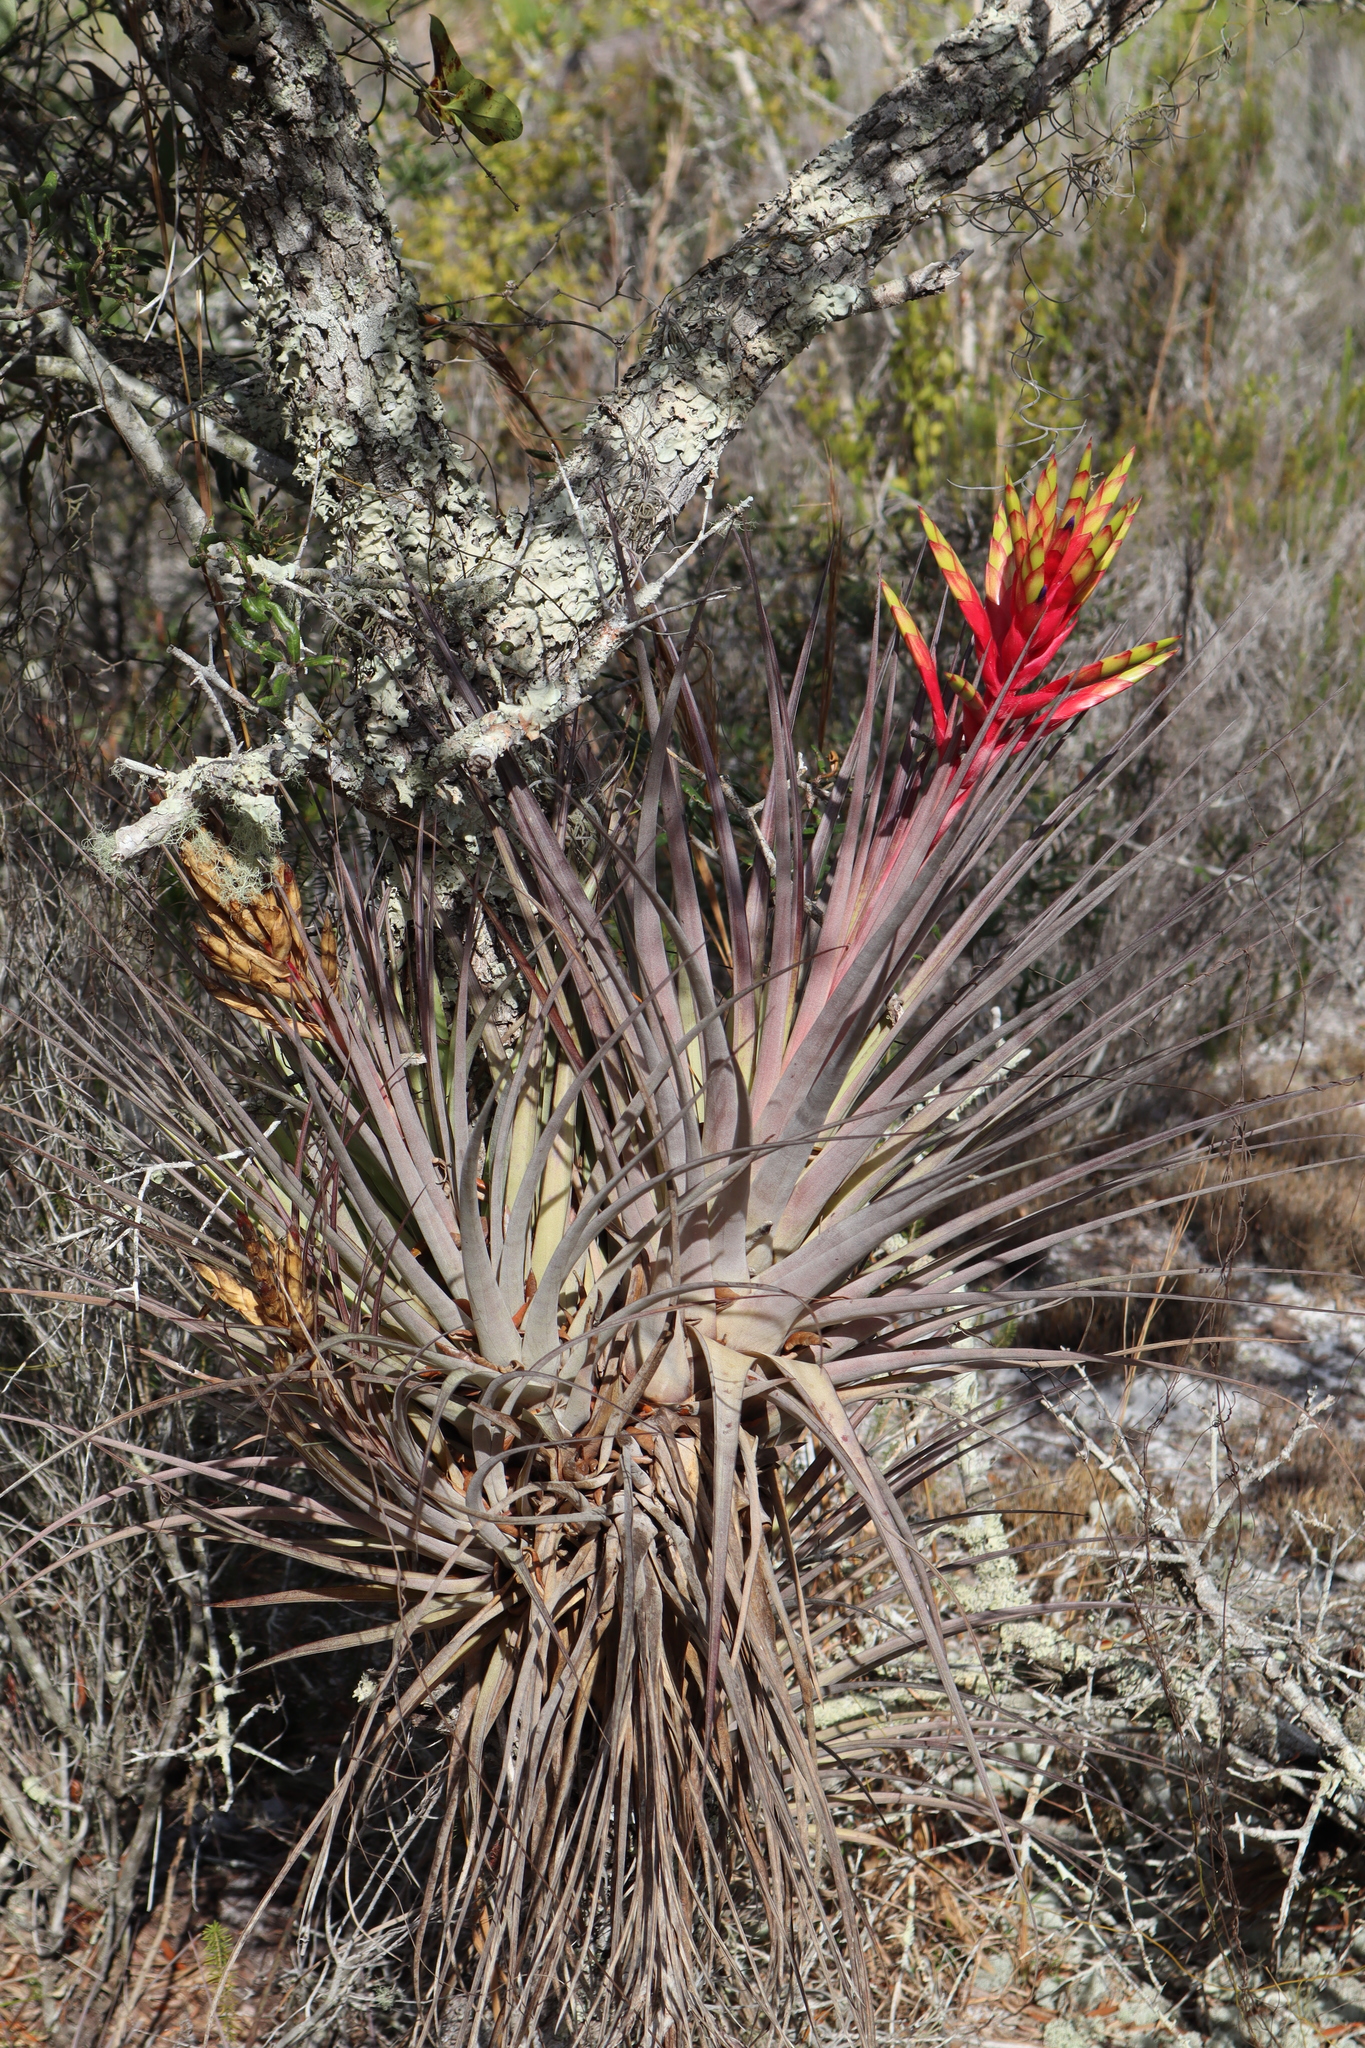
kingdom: Plantae
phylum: Tracheophyta
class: Liliopsida
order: Poales
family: Bromeliaceae
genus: Tillandsia
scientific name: Tillandsia fasciculata
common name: Giant airplant
